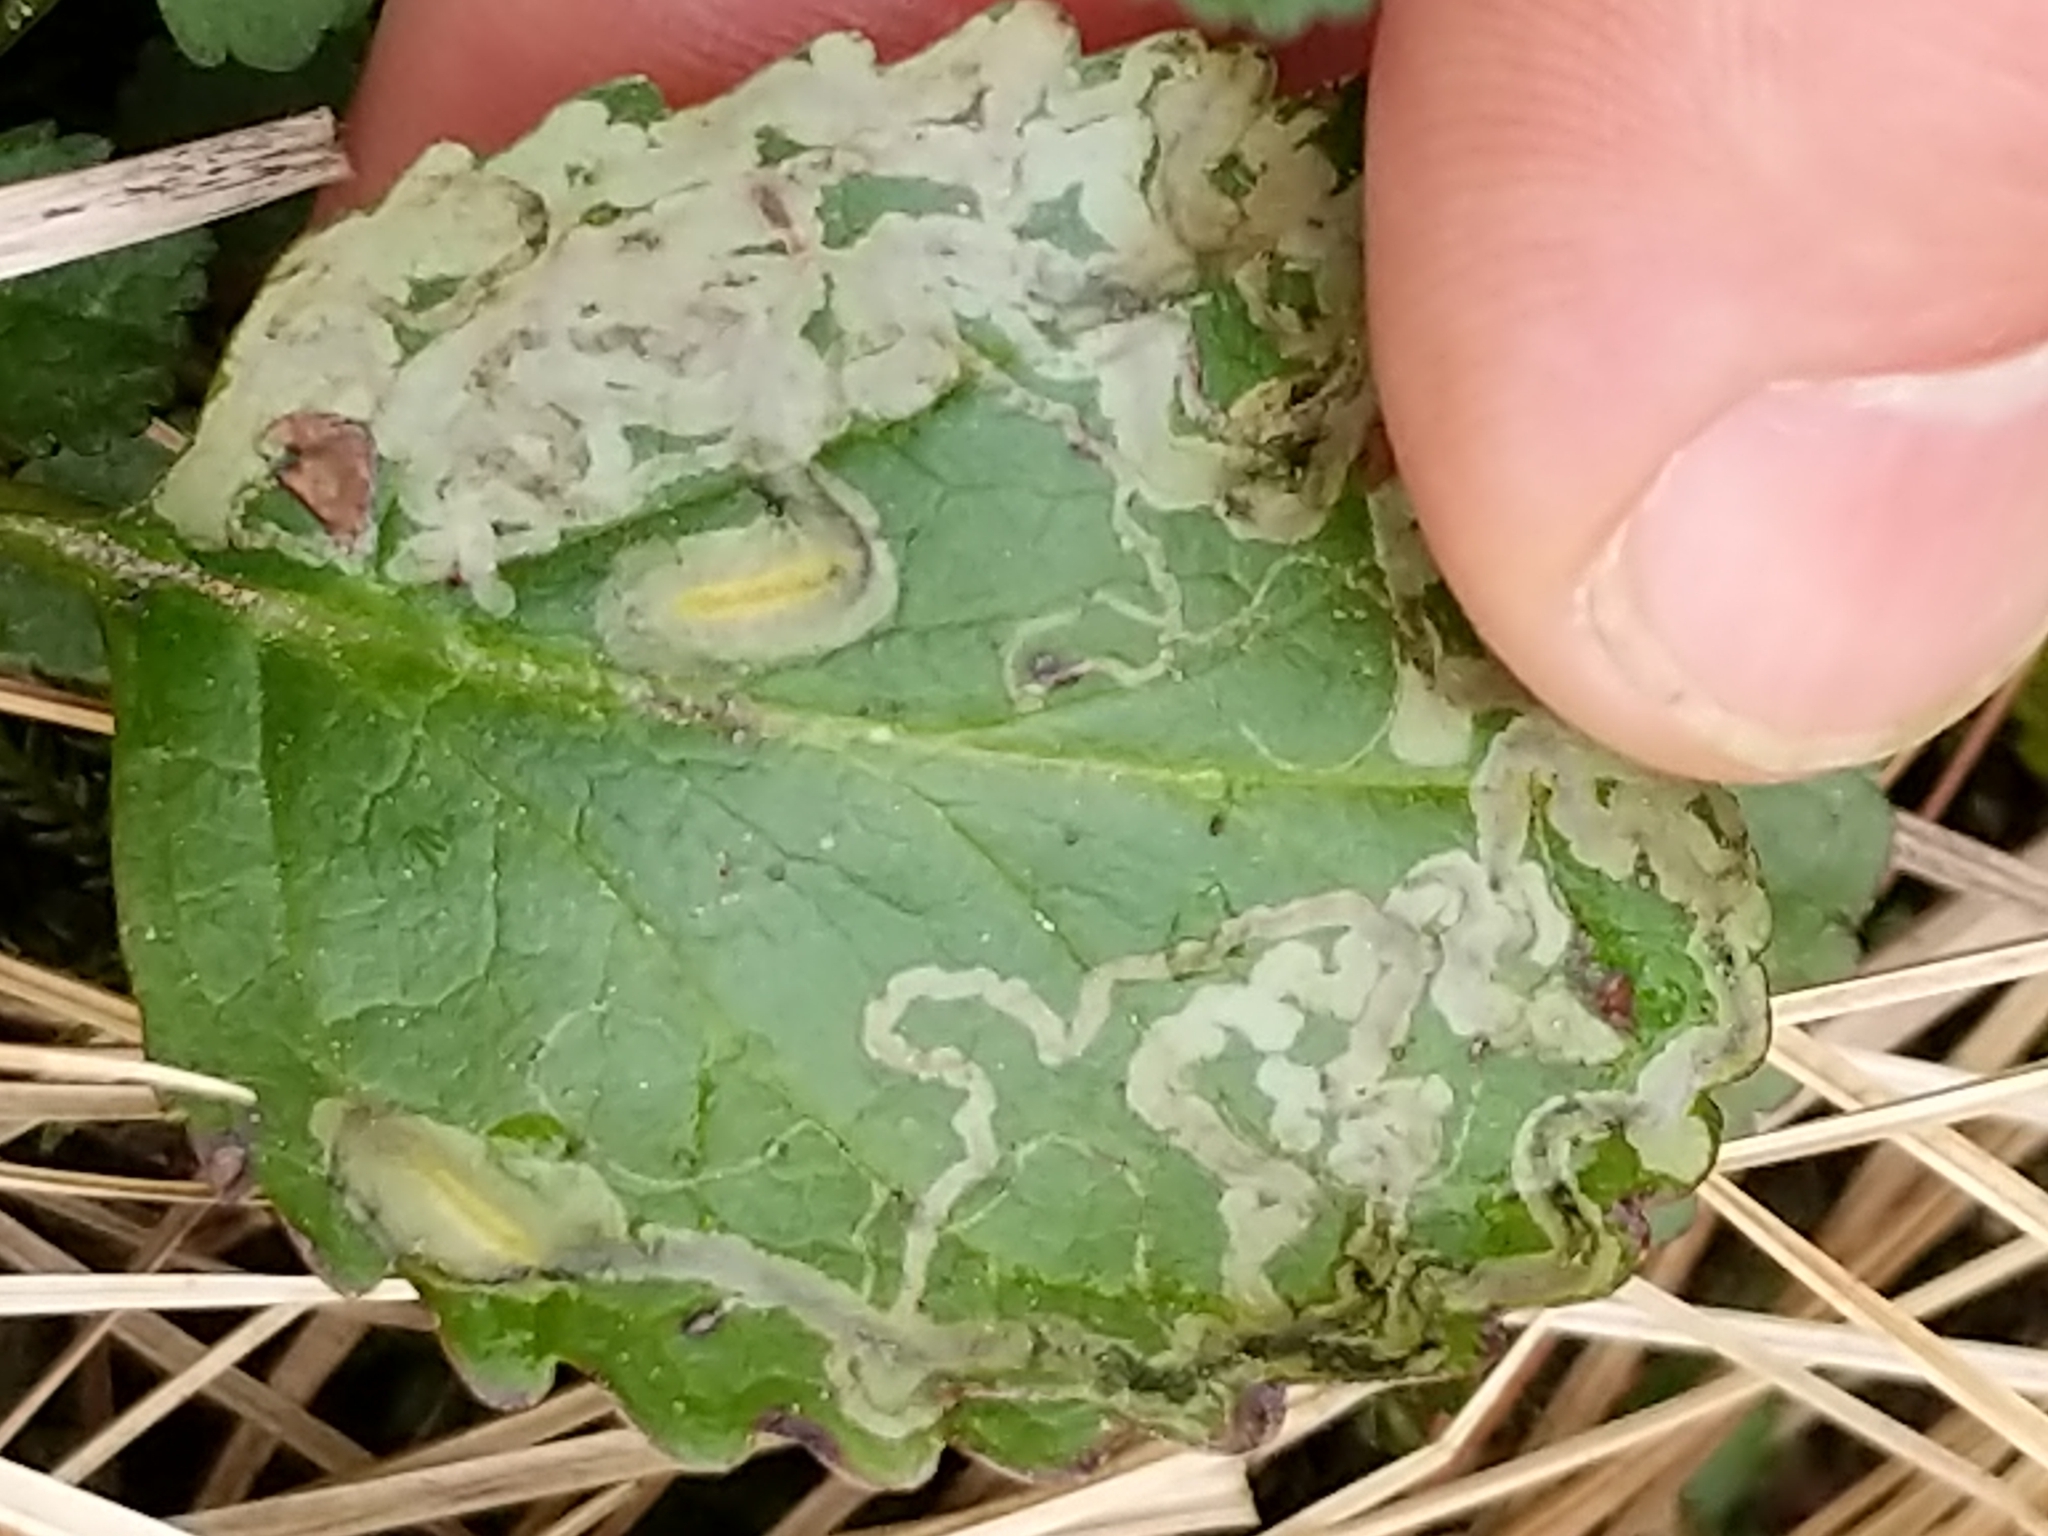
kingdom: Animalia
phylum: Arthropoda
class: Insecta
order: Lepidoptera
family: Gracillariidae
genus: Phyllocnistis
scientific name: Phyllocnistis insignis
